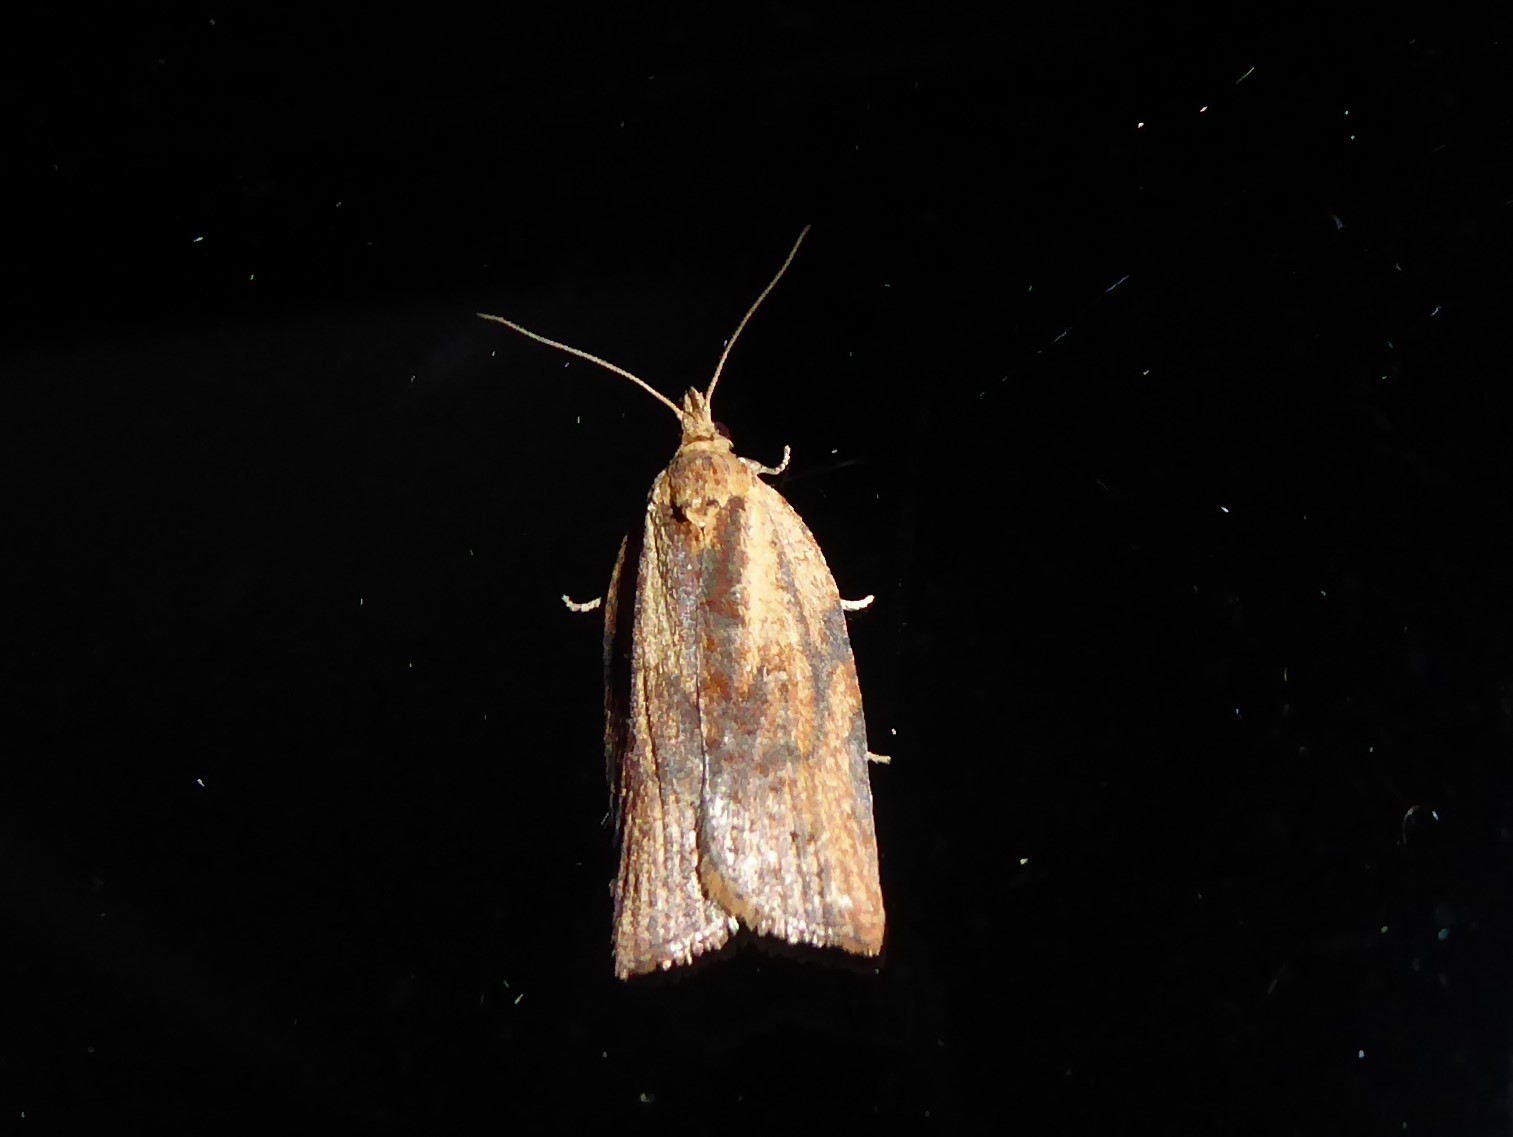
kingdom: Animalia
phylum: Arthropoda
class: Insecta
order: Lepidoptera
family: Tortricidae
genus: Epiphyas
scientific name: Epiphyas postvittana
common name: Light brown apple moth
